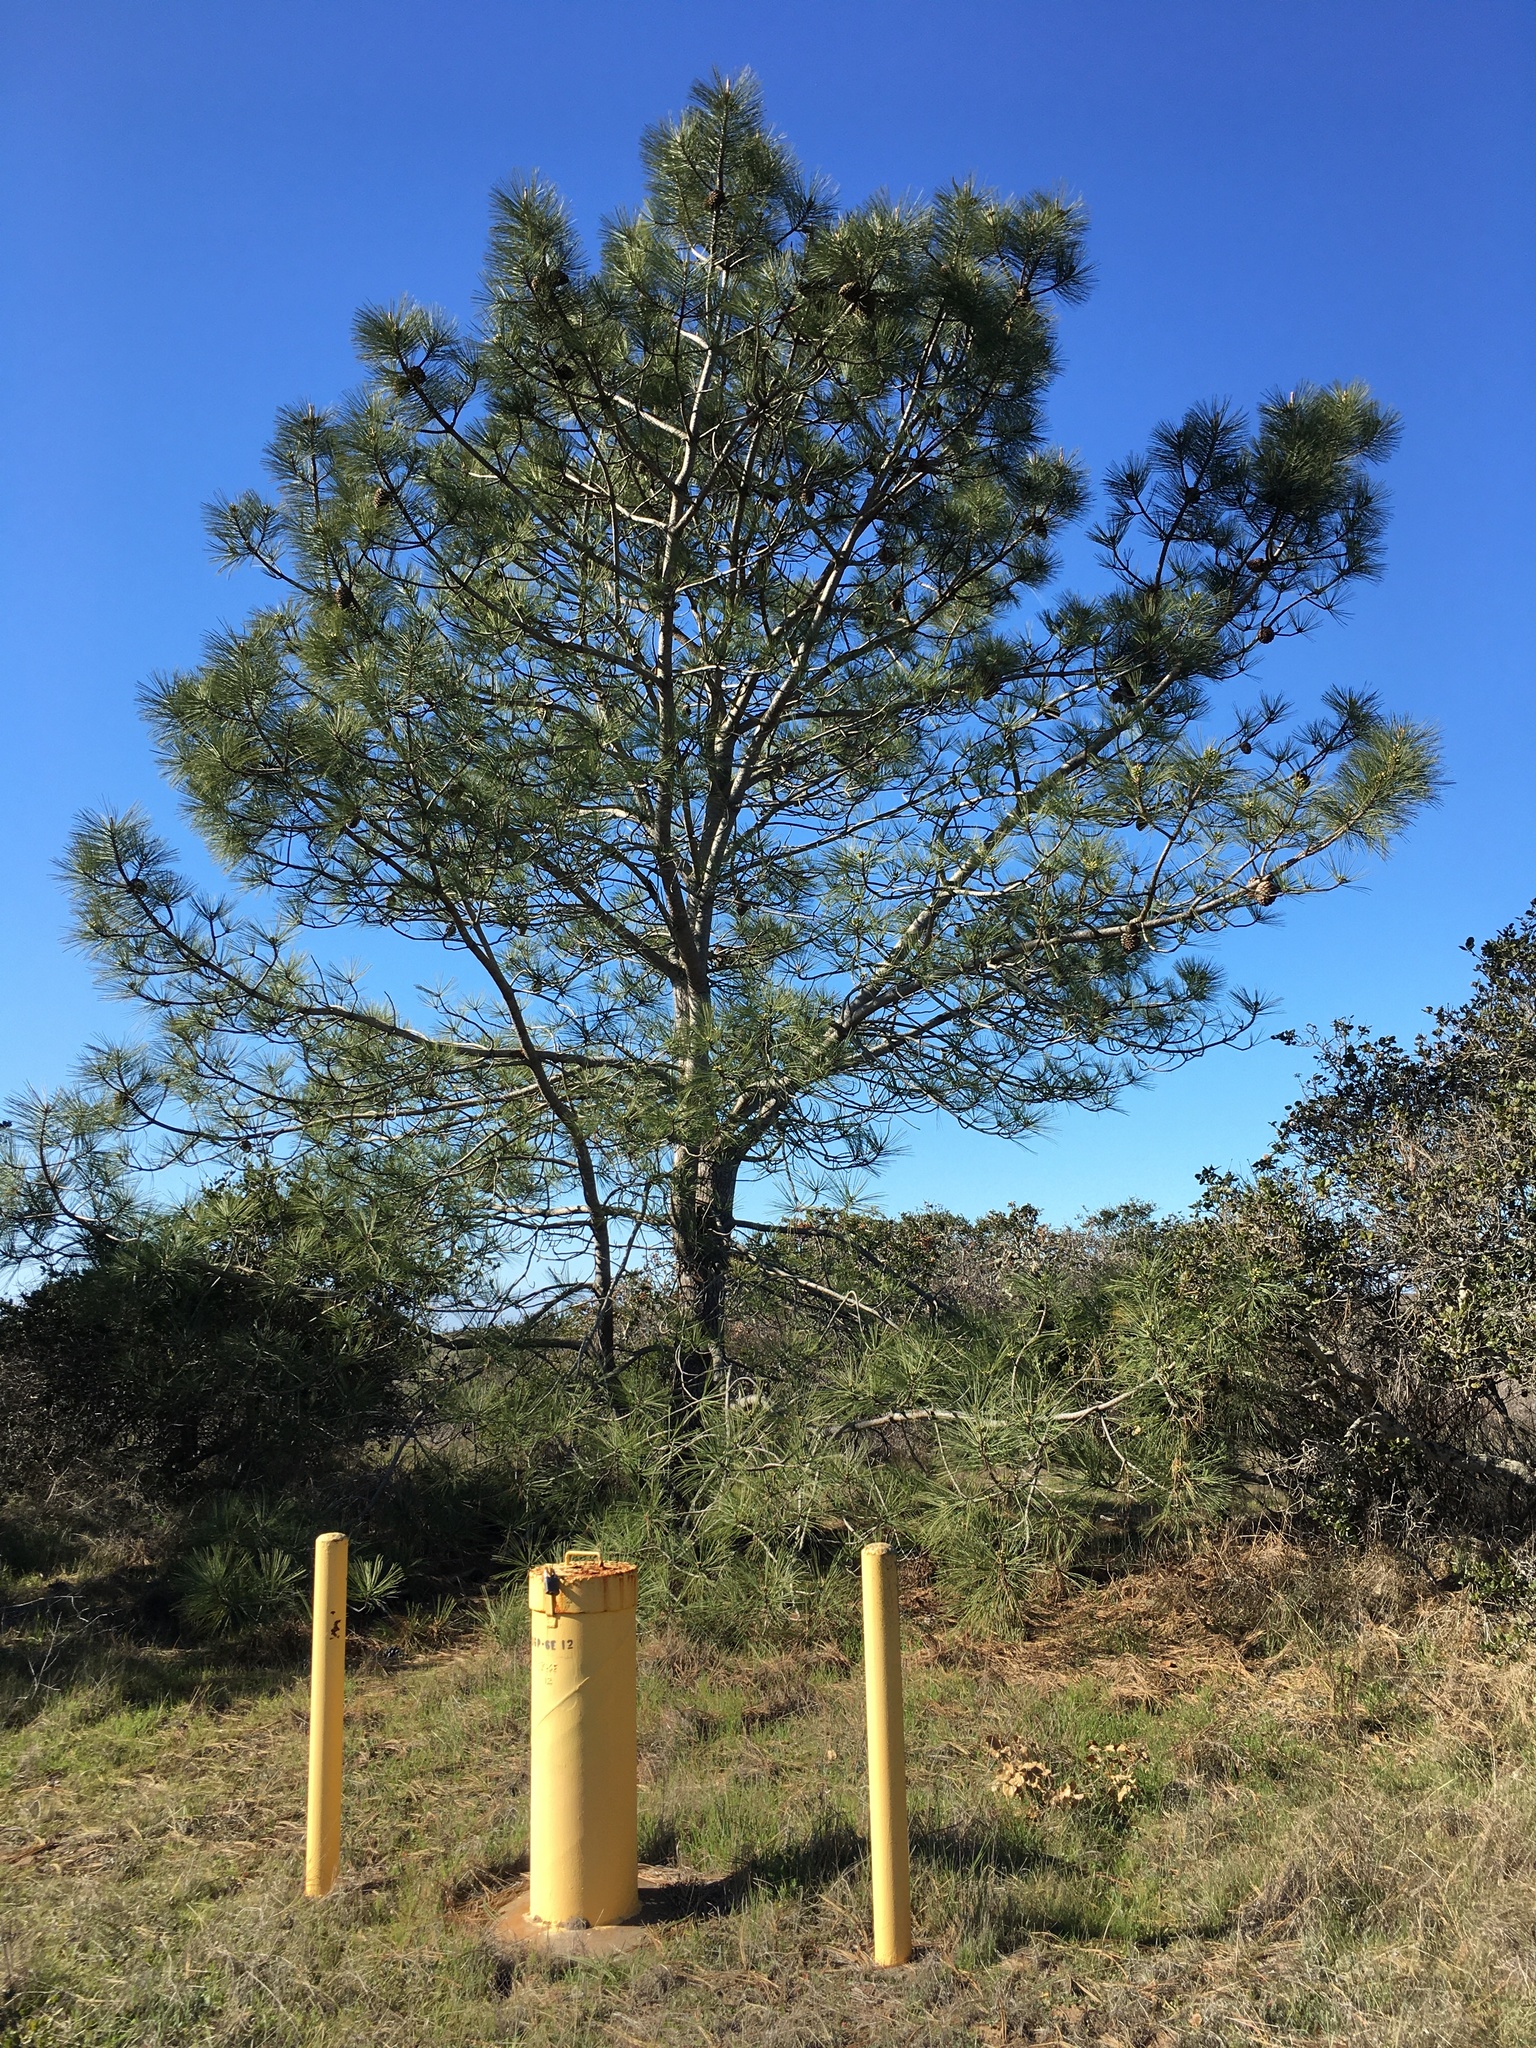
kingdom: Plantae
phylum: Tracheophyta
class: Pinopsida
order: Pinales
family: Pinaceae
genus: Pinus
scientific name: Pinus torreyana
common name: Torrey pine
